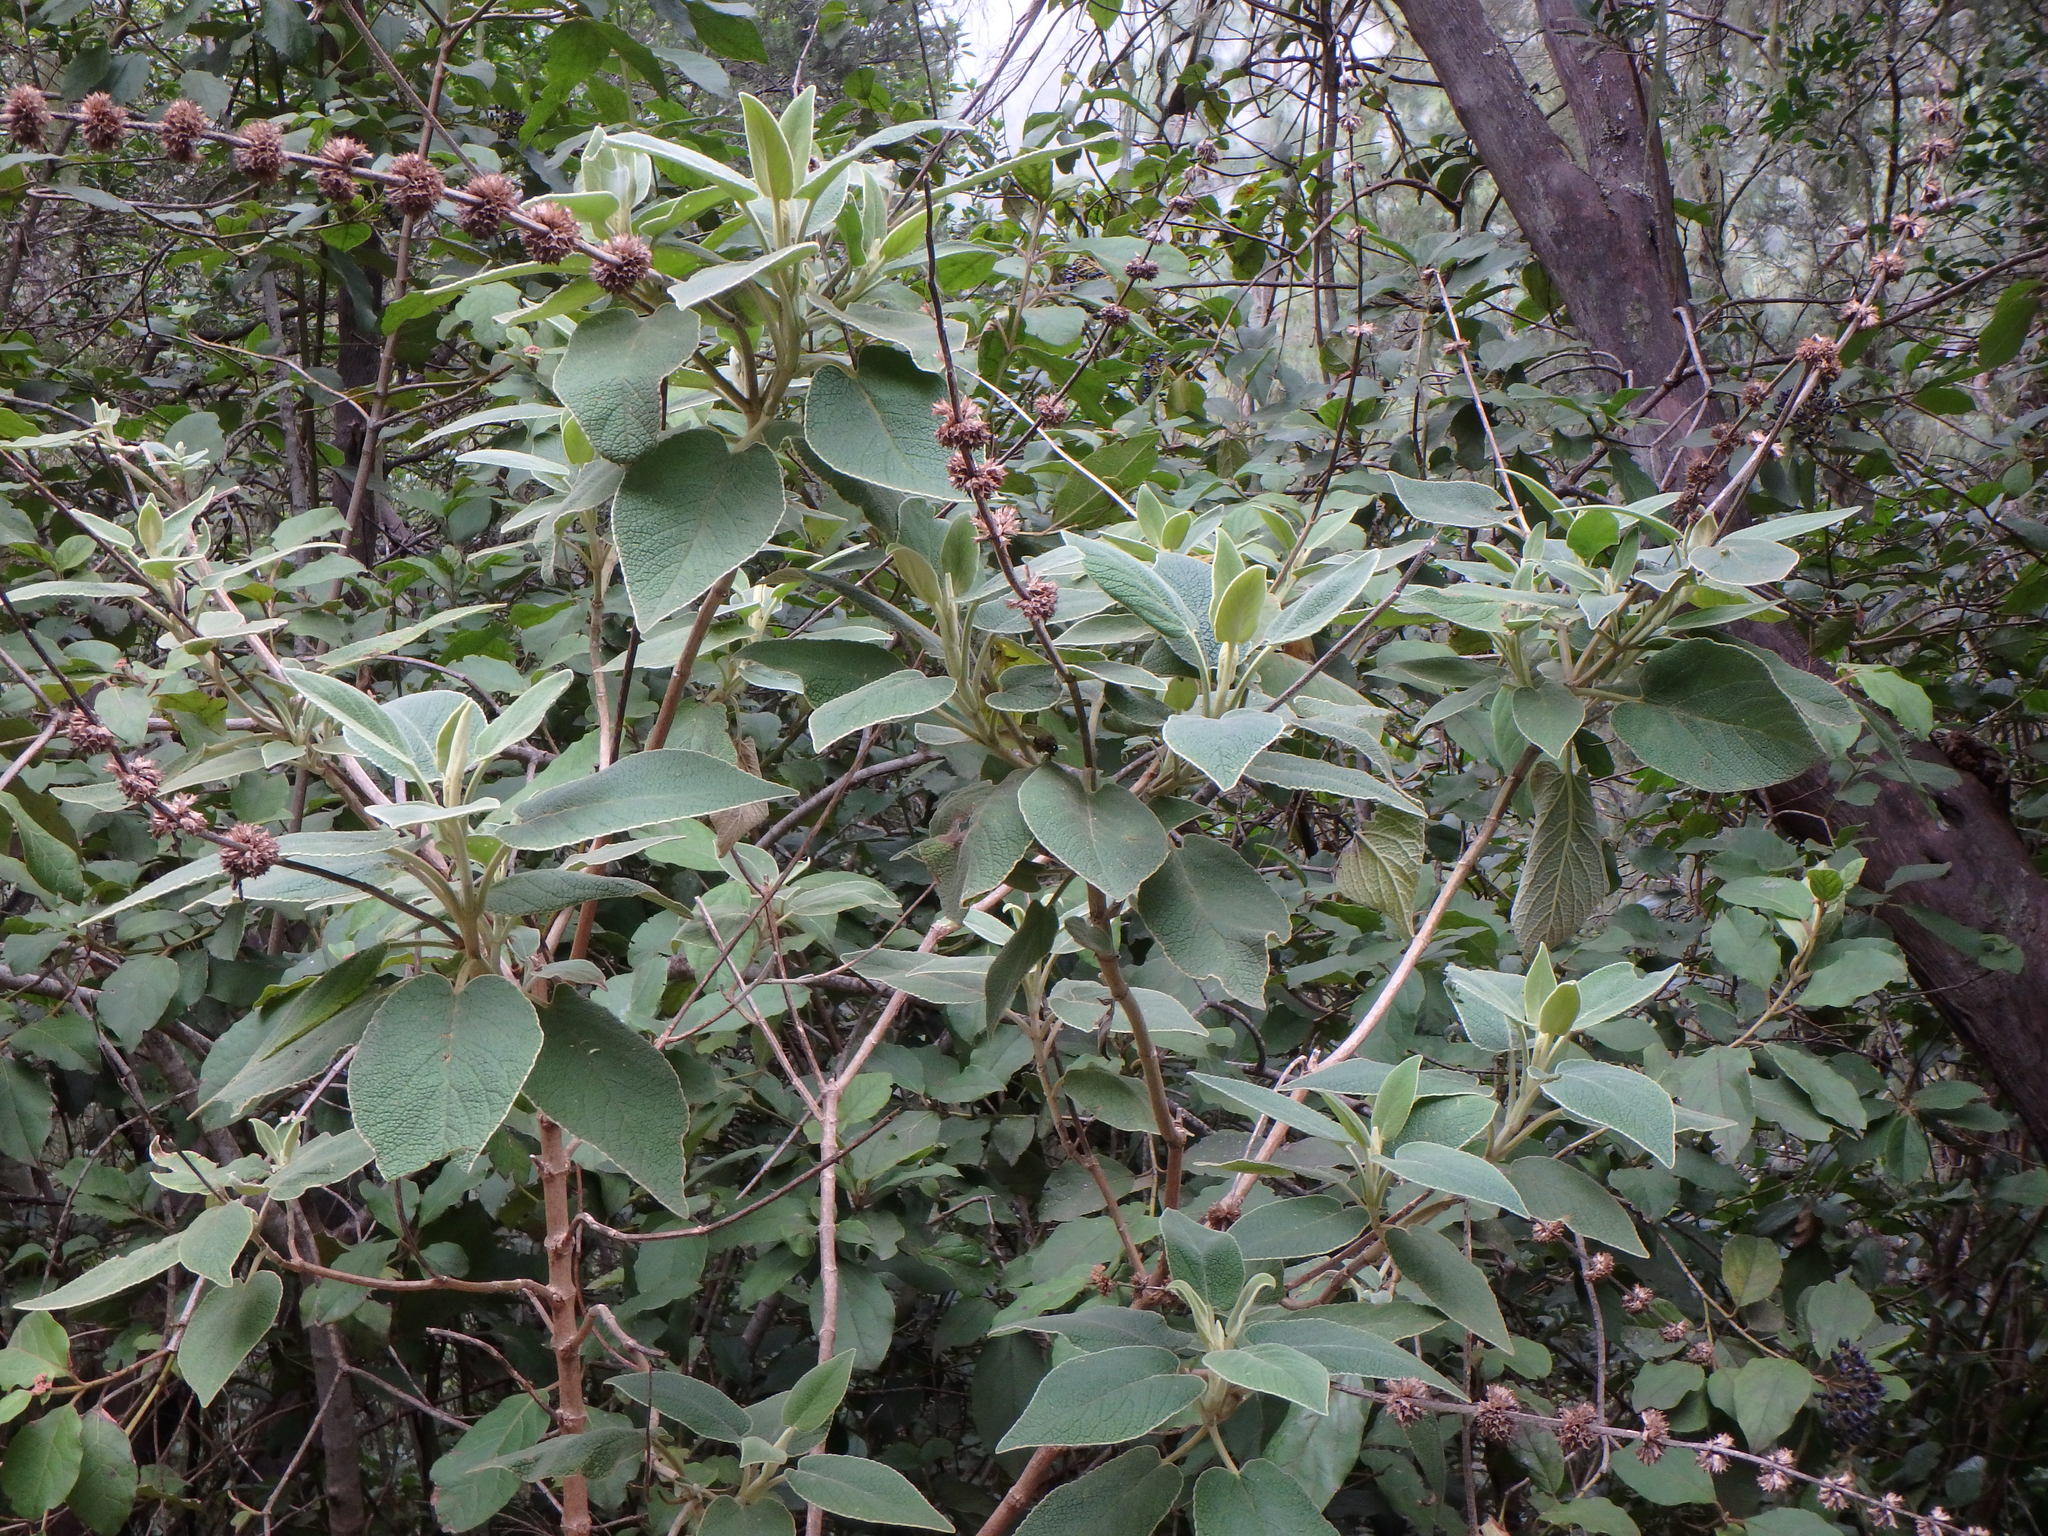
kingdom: Plantae
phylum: Tracheophyta
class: Magnoliopsida
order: Lamiales
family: Lamiaceae
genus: Sideritis
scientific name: Sideritis canariensis
